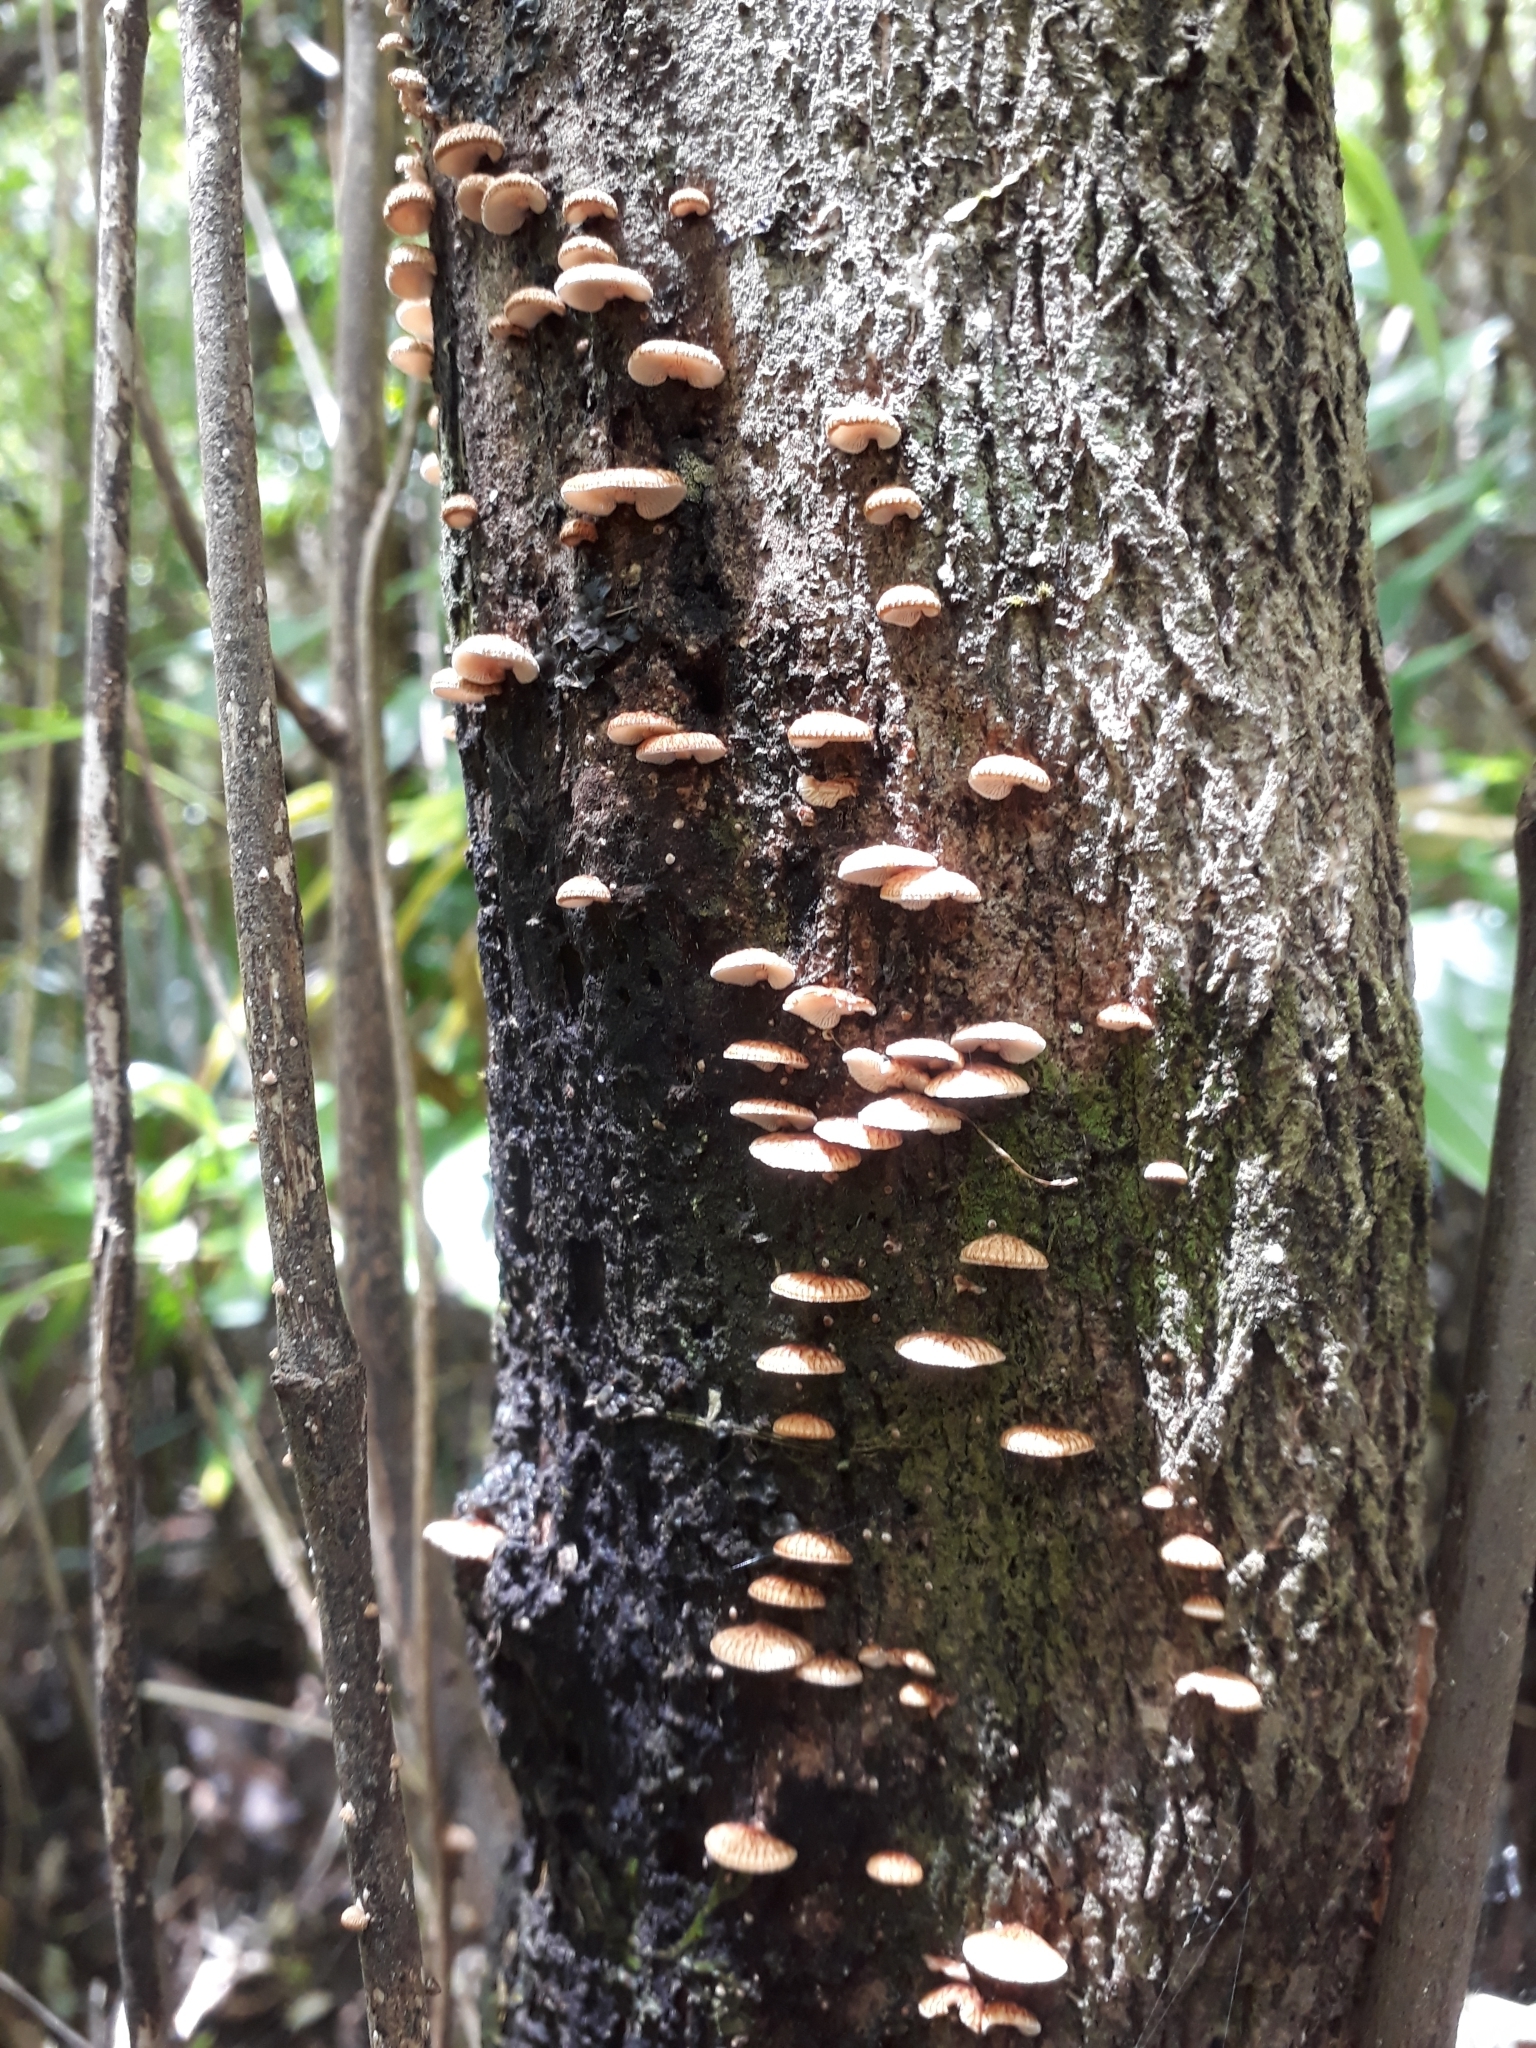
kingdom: Fungi
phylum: Basidiomycota
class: Agaricomycetes
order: Agaricales
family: Marasmiaceae
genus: Chaetocalathus
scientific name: Chaetocalathus cocciformis
